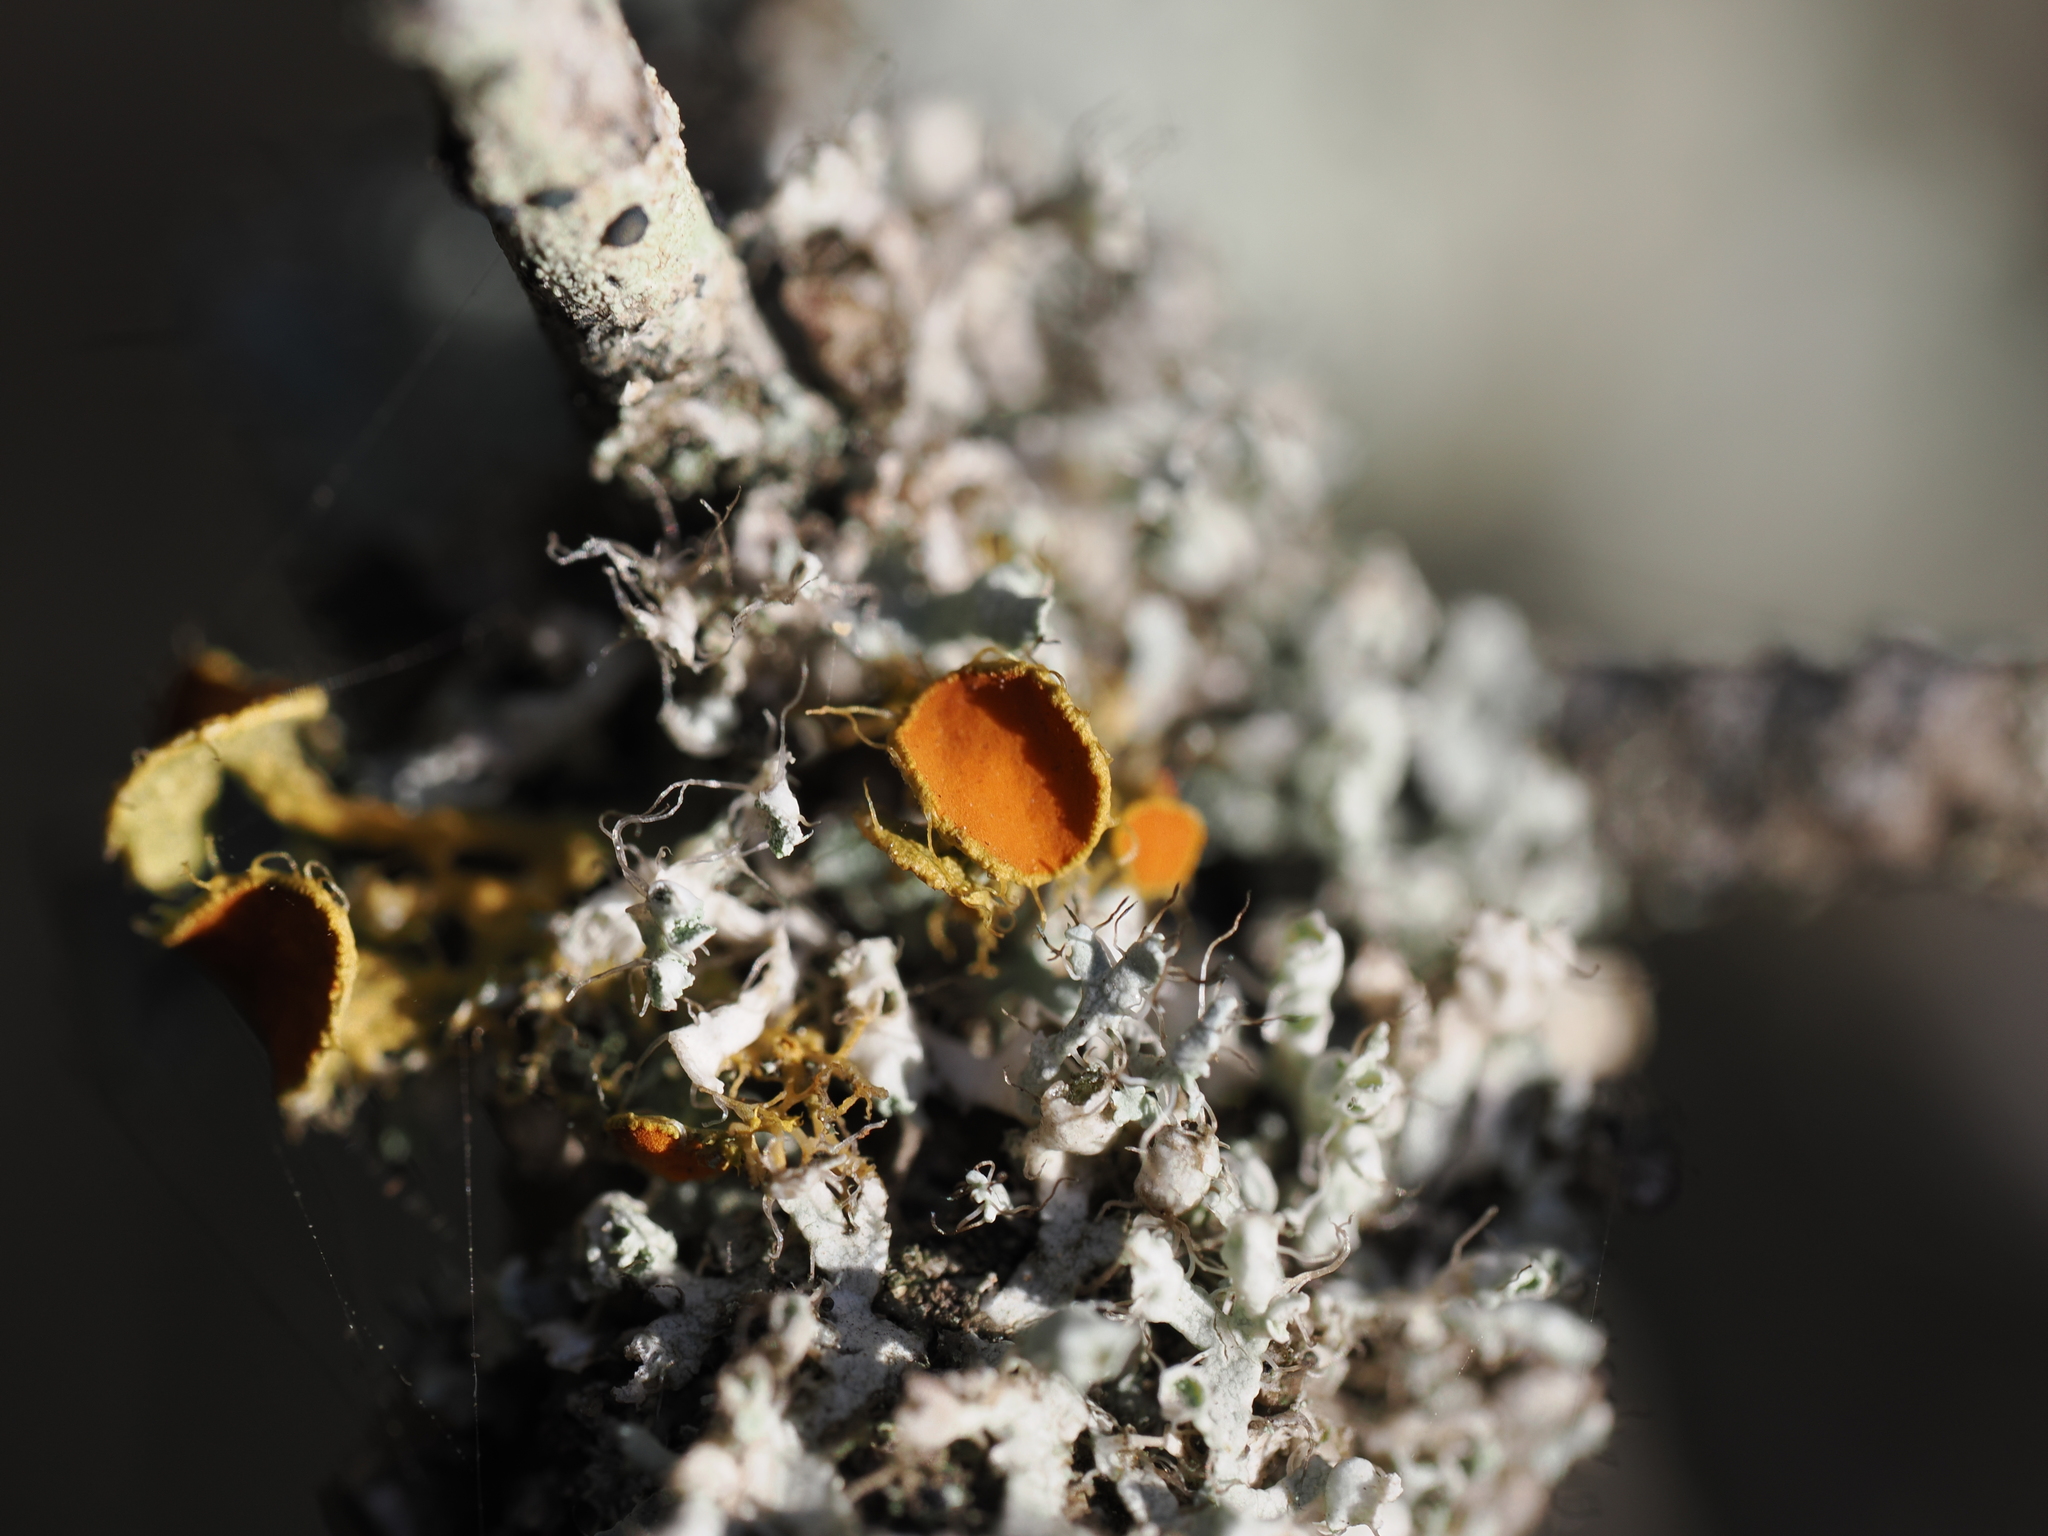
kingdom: Fungi
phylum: Ascomycota
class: Lecanoromycetes
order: Teloschistales
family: Teloschistaceae
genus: Niorma
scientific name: Niorma chrysophthalma
